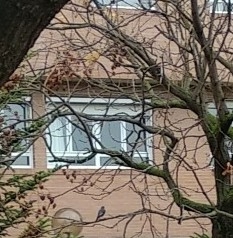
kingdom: Animalia
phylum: Chordata
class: Aves
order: Passeriformes
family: Muscicapidae
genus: Phoenicurus
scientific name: Phoenicurus ochruros
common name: Black redstart
